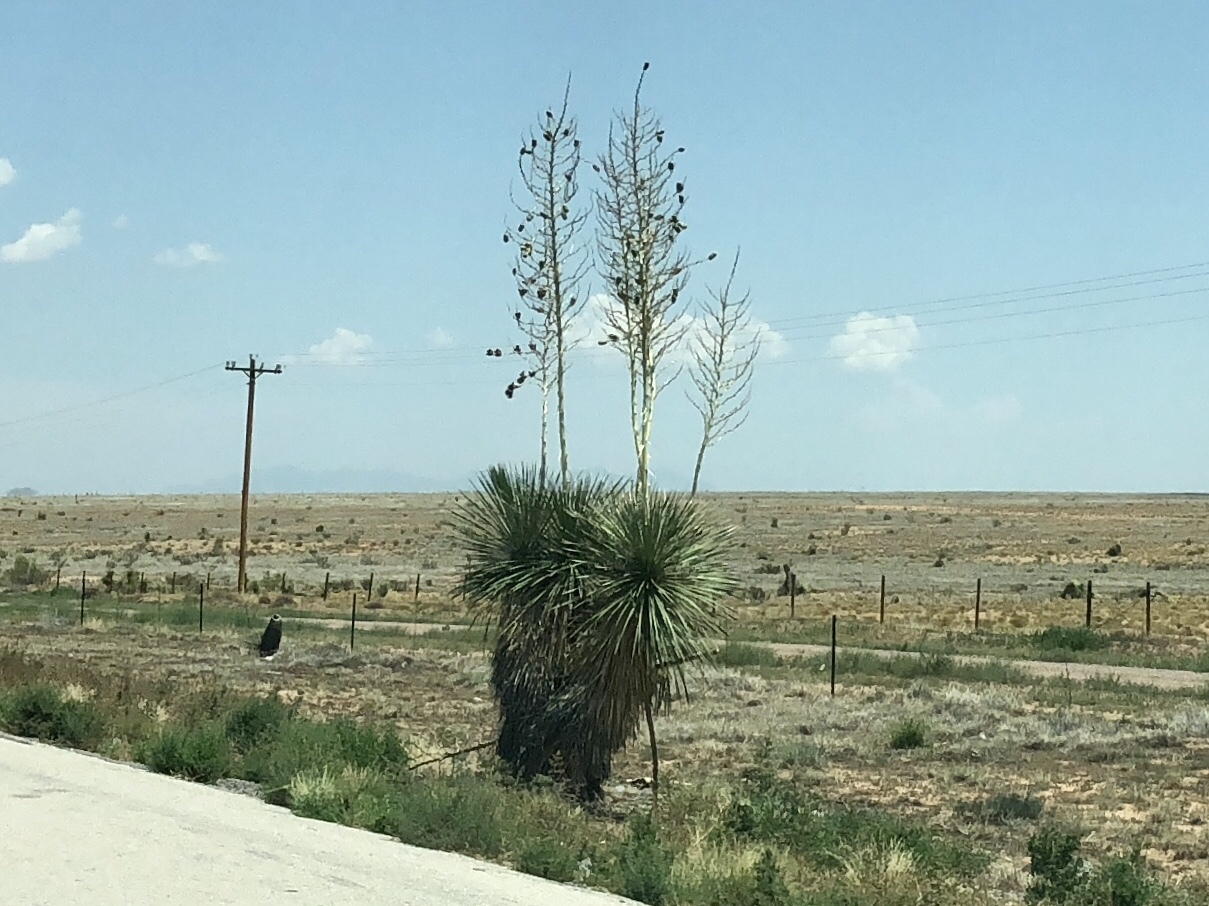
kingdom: Plantae
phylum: Tracheophyta
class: Liliopsida
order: Asparagales
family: Asparagaceae
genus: Yucca
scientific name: Yucca elata
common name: Palmella
